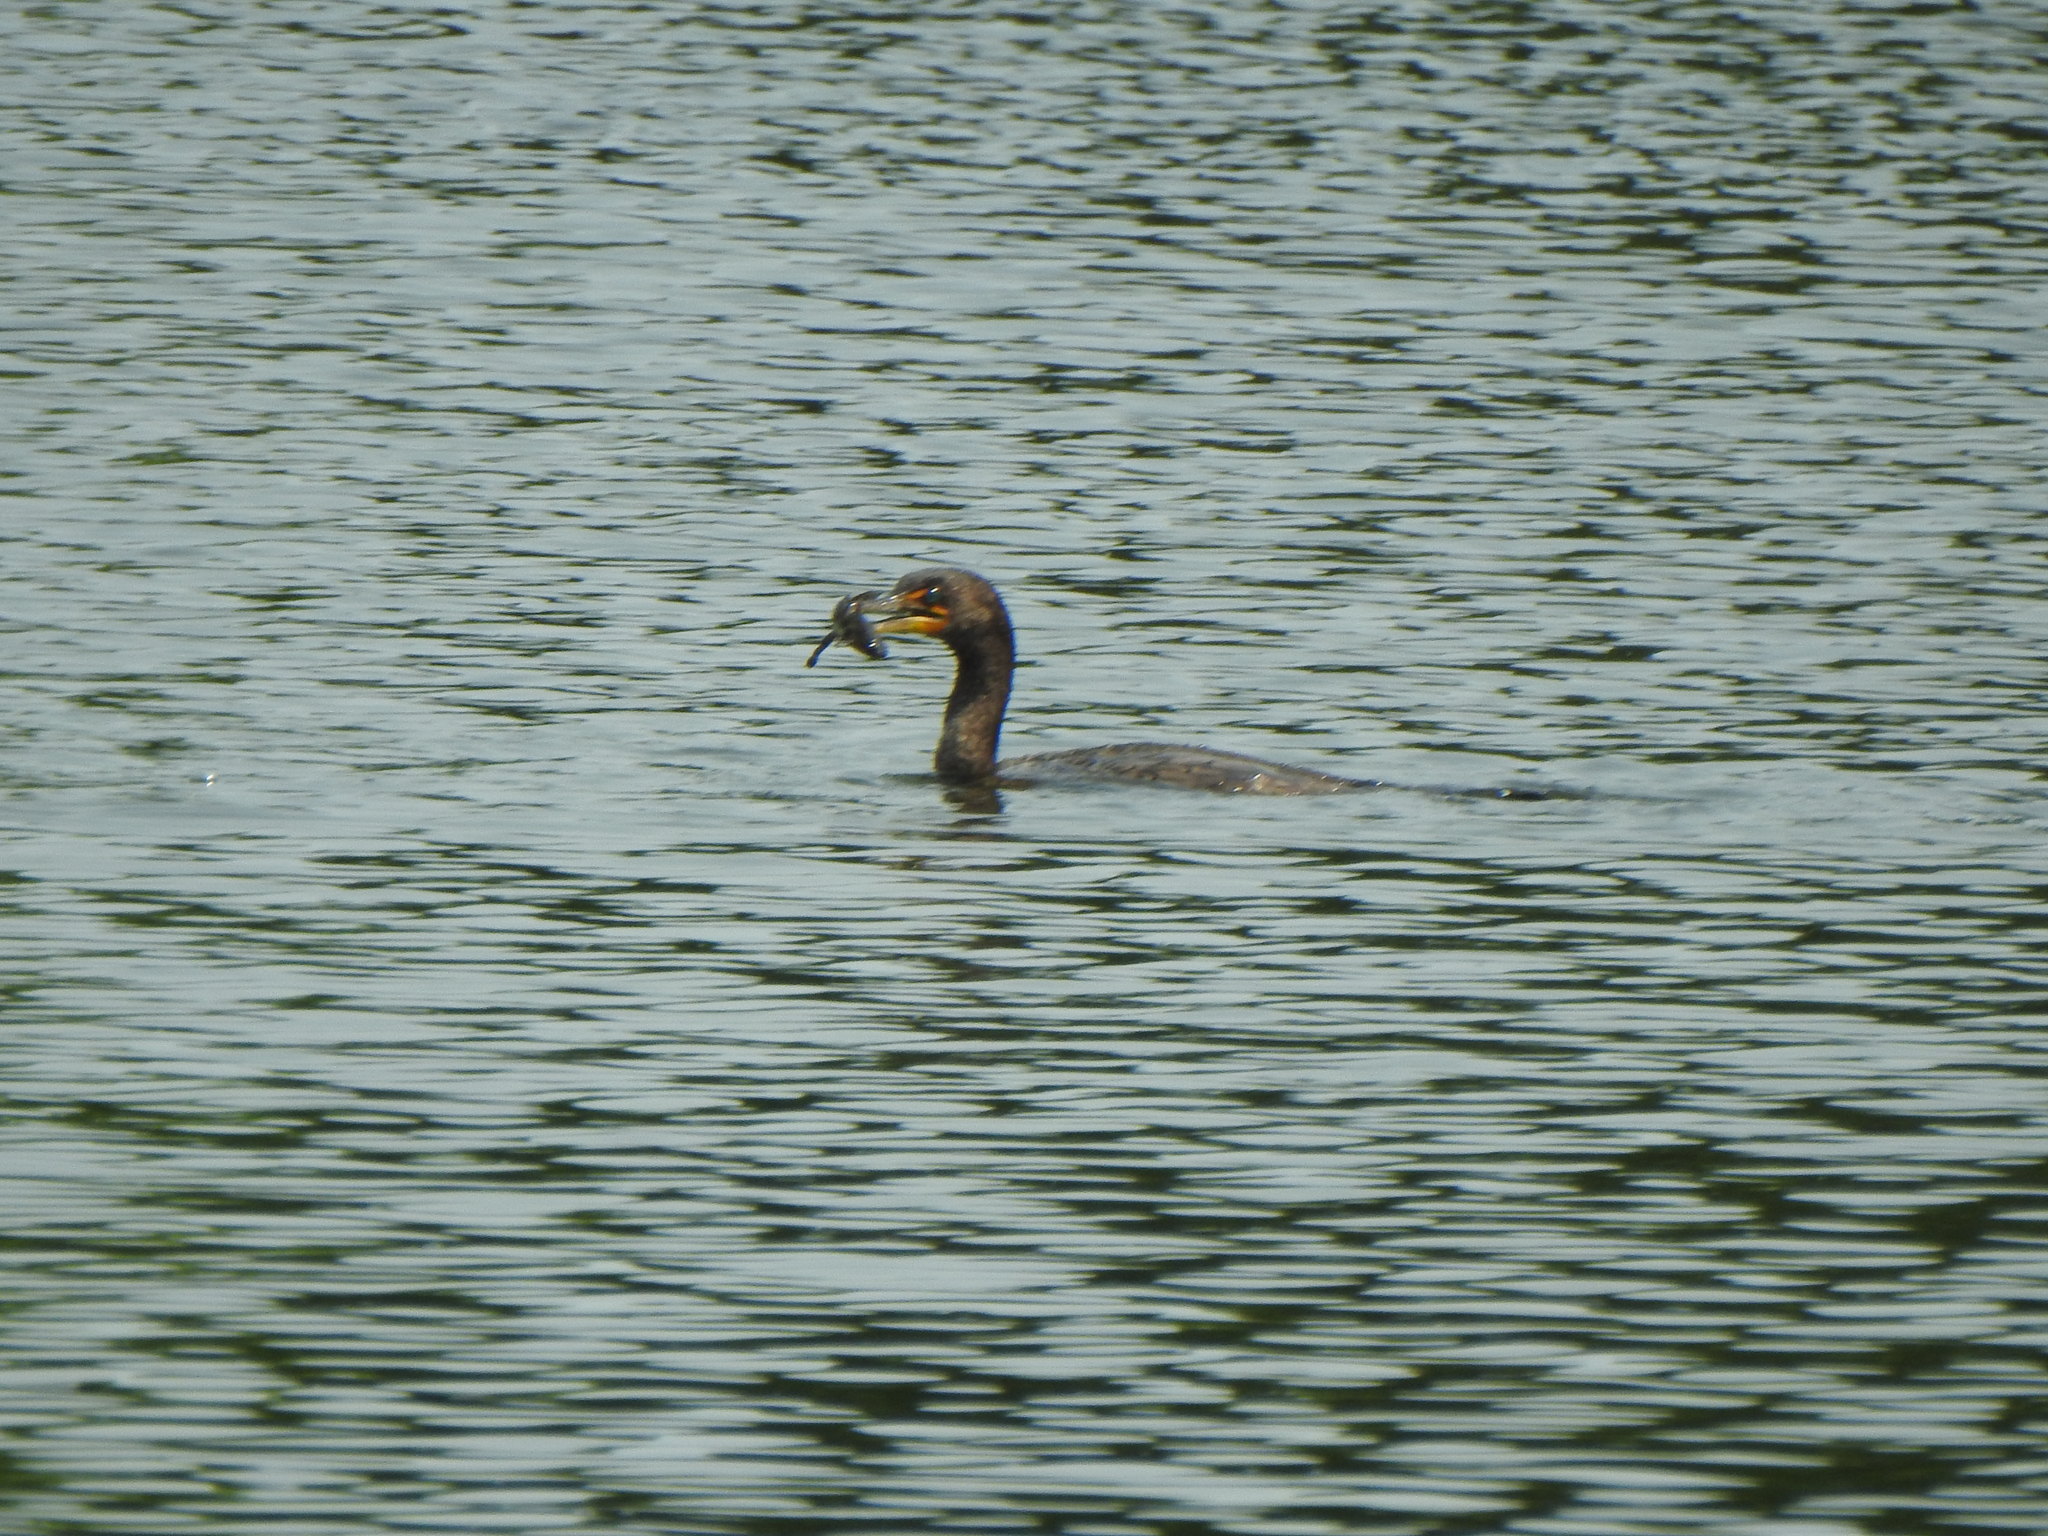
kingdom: Animalia
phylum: Chordata
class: Aves
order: Suliformes
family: Phalacrocoracidae
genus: Phalacrocorax
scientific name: Phalacrocorax auritus
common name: Double-crested cormorant
